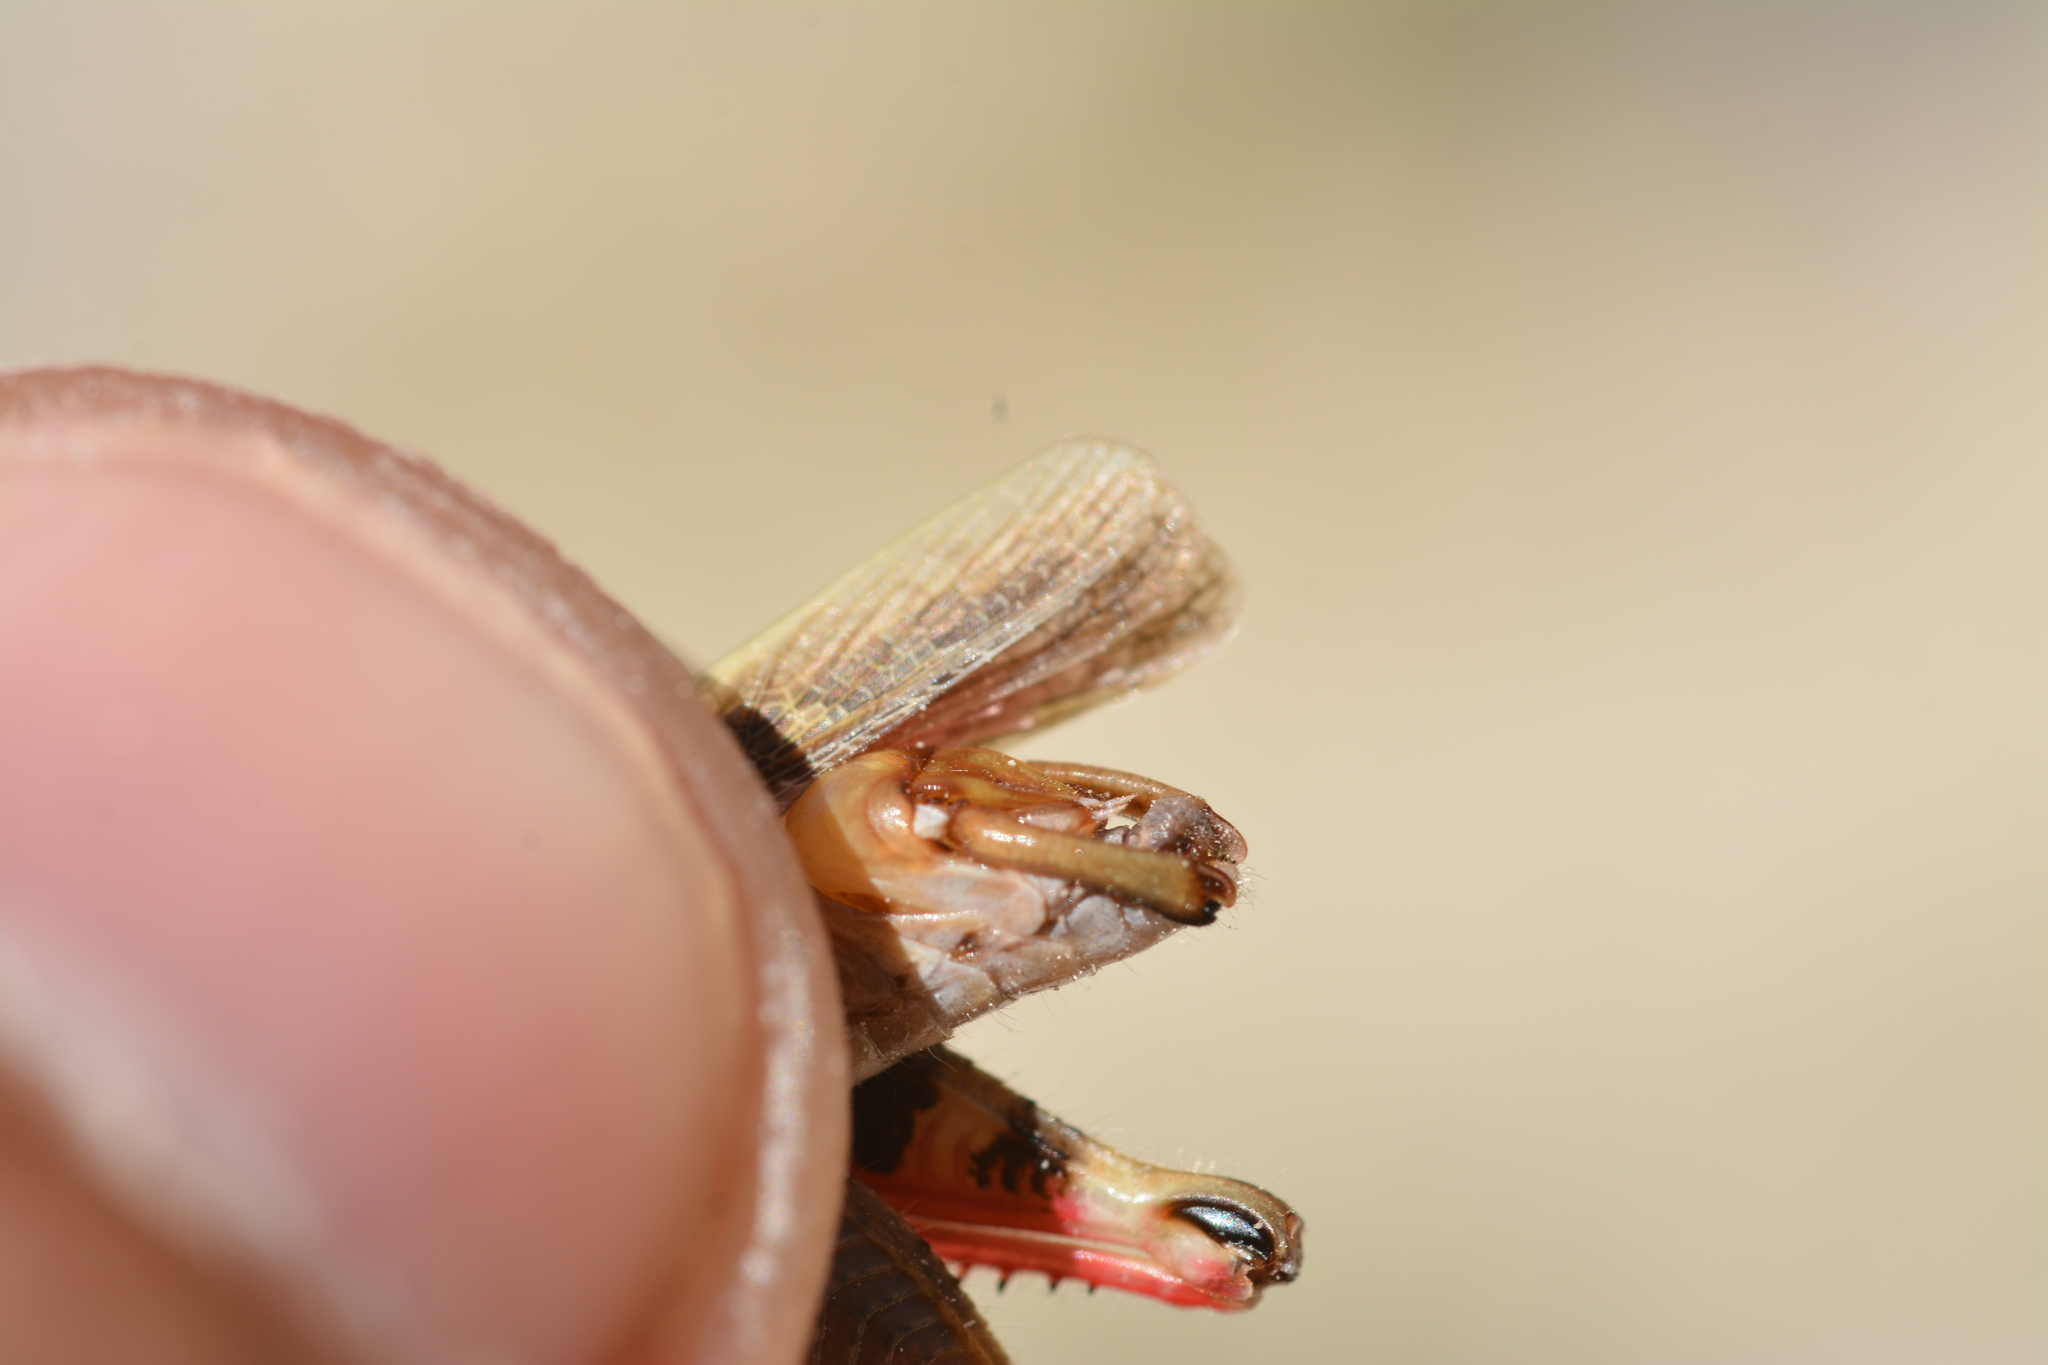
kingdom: Animalia
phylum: Arthropoda
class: Insecta
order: Orthoptera
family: Acrididae
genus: Calliptamus
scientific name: Calliptamus barbarus
